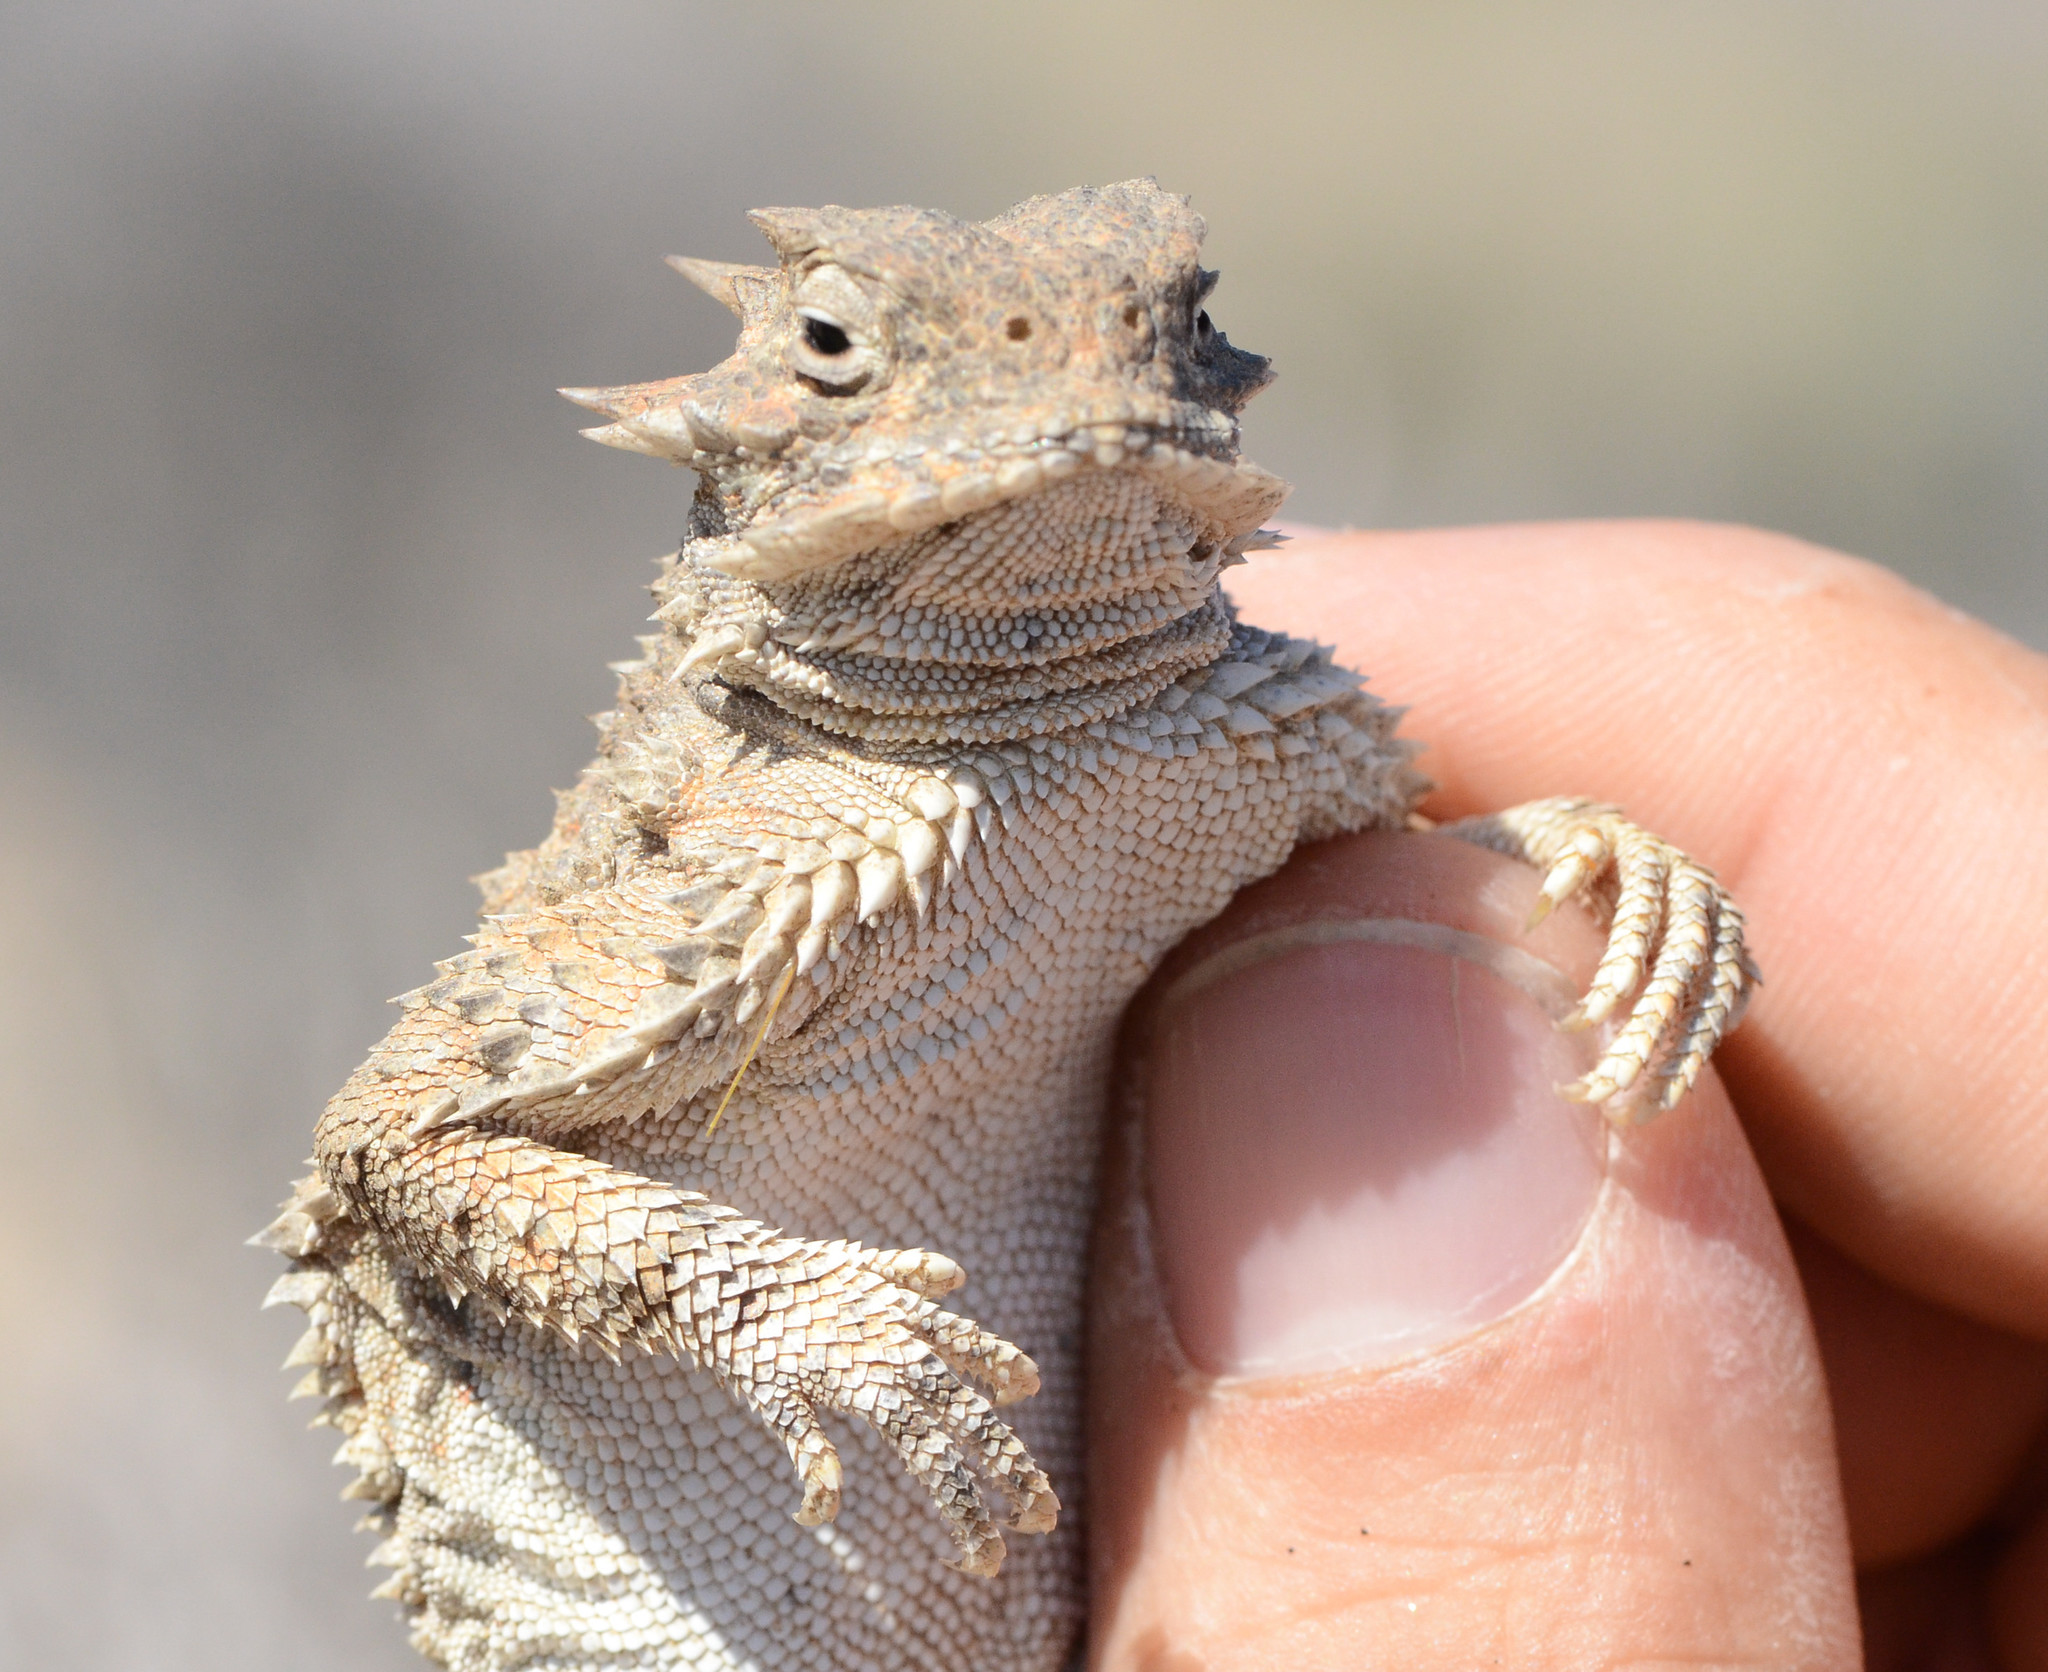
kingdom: Animalia
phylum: Chordata
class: Squamata
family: Phrynosomatidae
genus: Phrynosoma
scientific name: Phrynosoma platyrhinos
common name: Desert horned lizard
